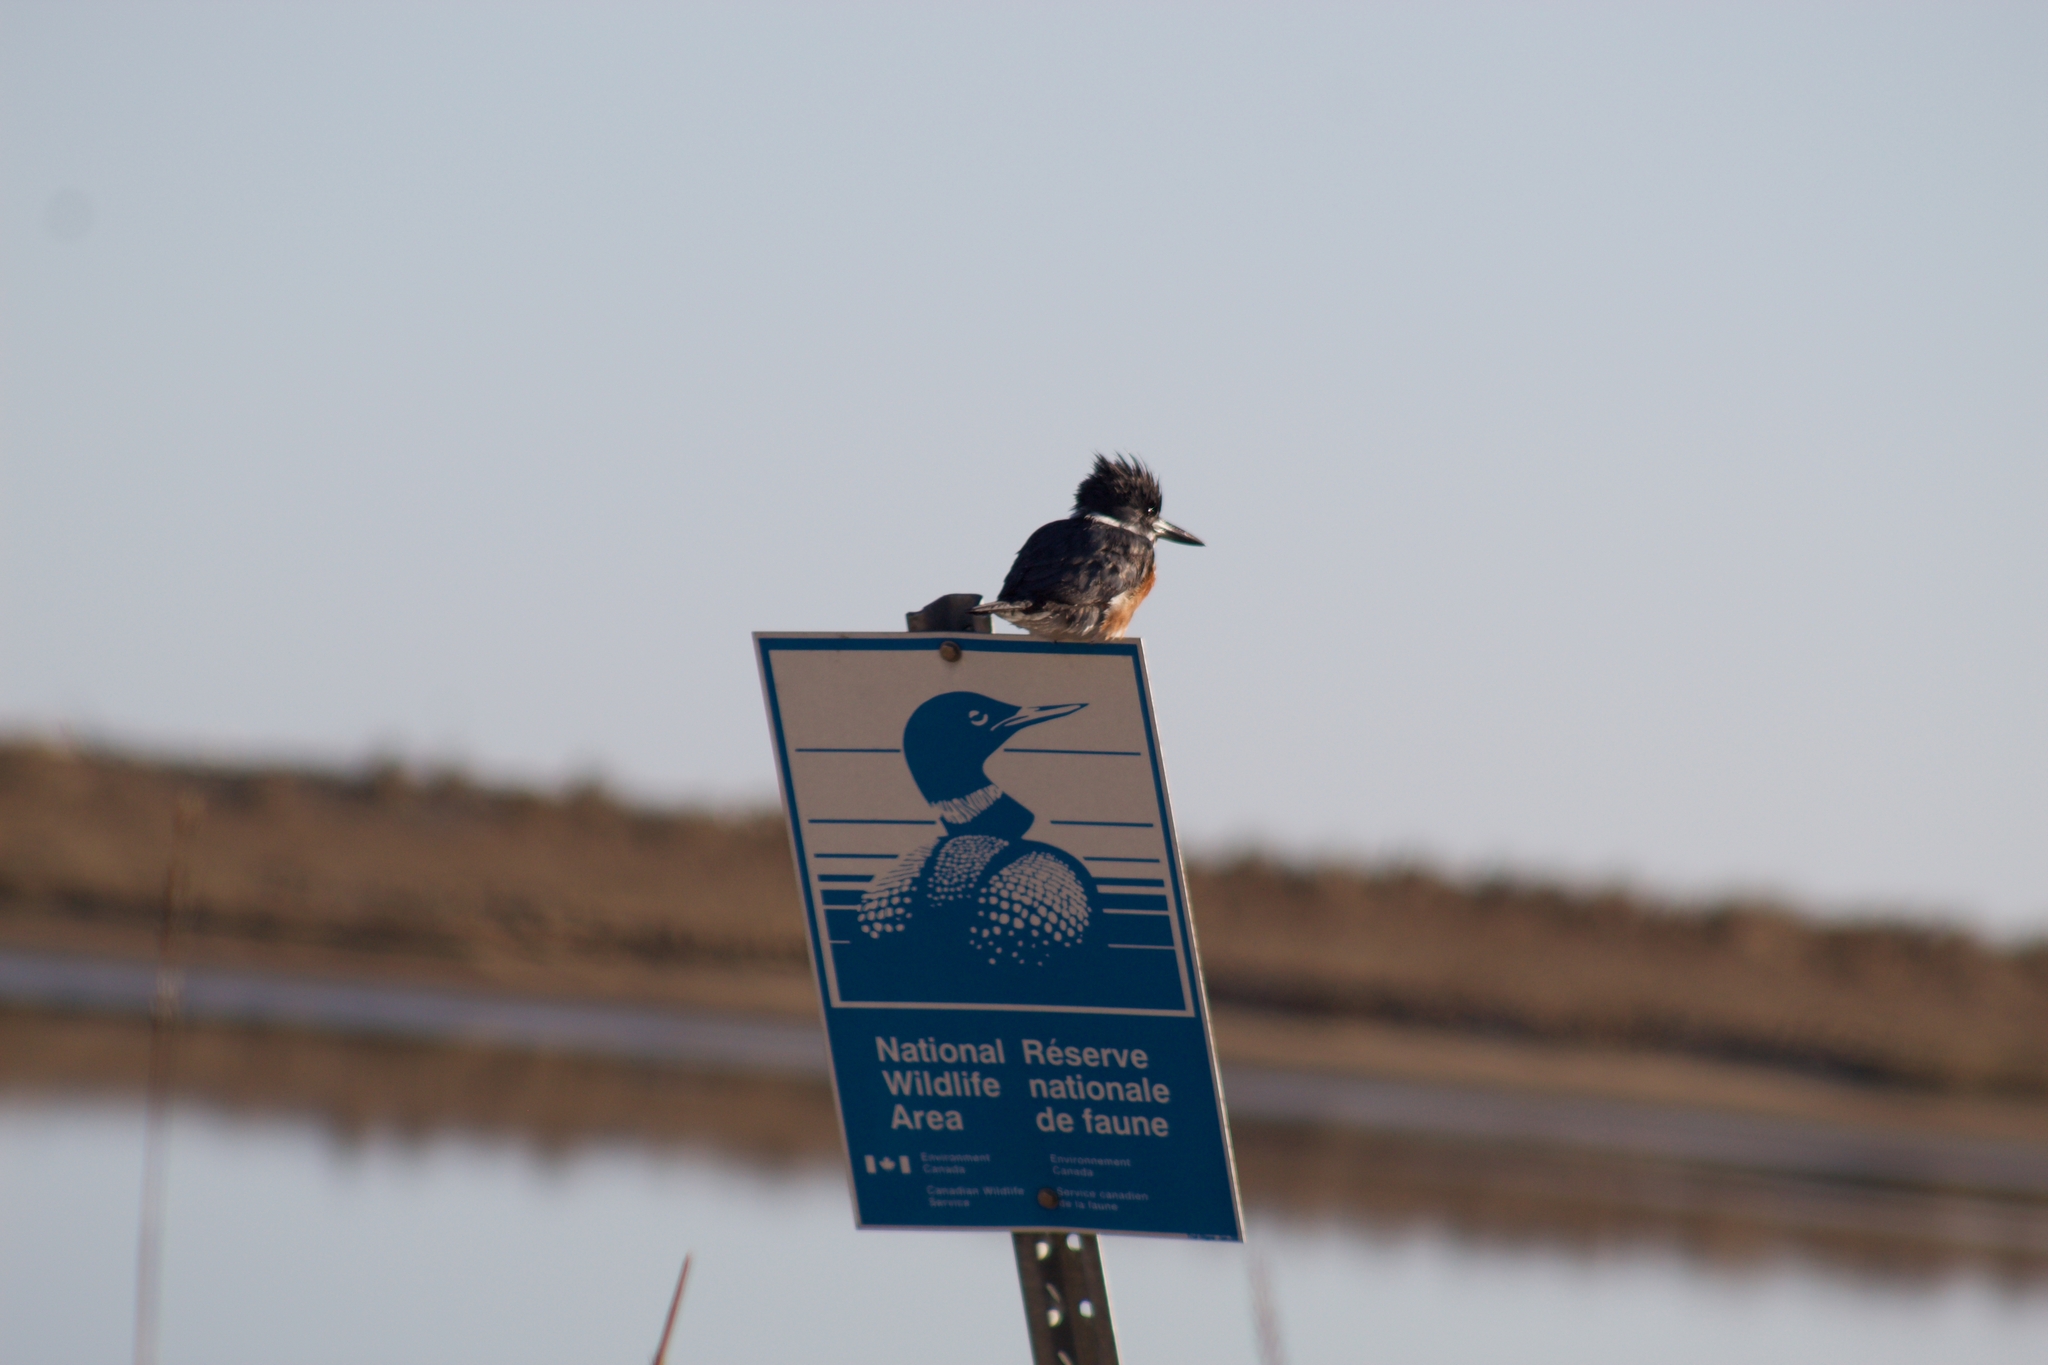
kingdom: Animalia
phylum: Chordata
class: Aves
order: Coraciiformes
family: Alcedinidae
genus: Megaceryle
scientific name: Megaceryle alcyon
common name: Belted kingfisher
